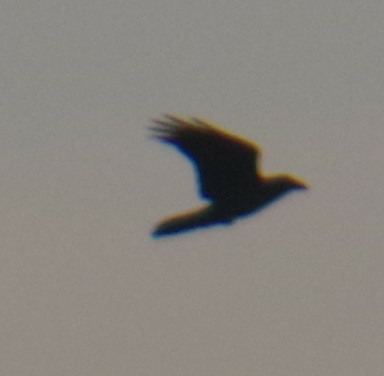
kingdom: Animalia
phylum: Chordata
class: Aves
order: Passeriformes
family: Corvidae
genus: Corvus
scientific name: Corvus corax
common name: Common raven
